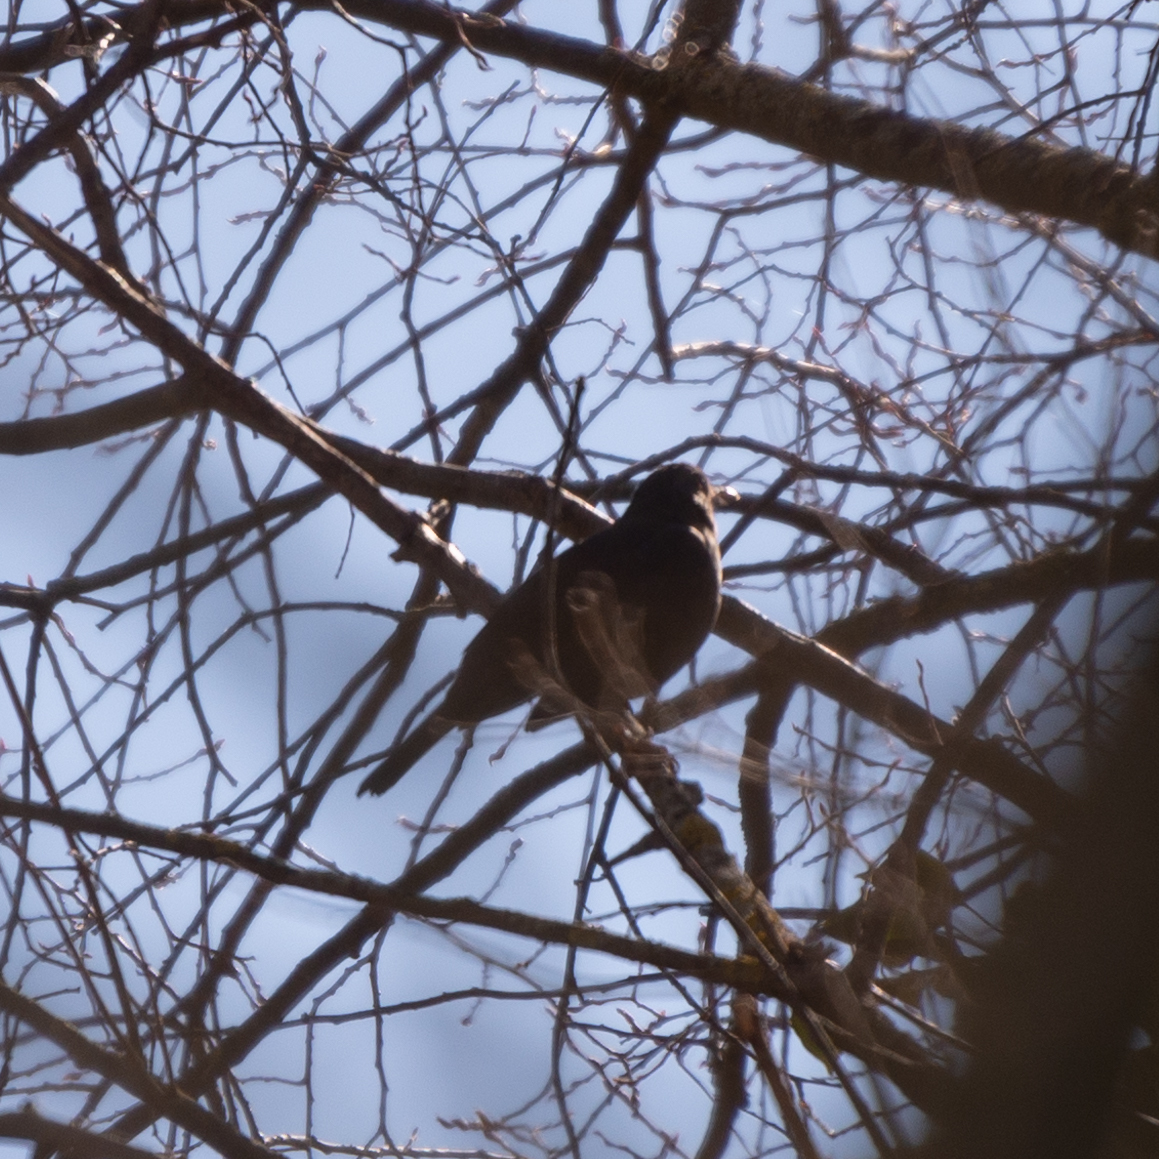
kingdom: Animalia
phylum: Chordata
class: Aves
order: Passeriformes
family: Turdidae
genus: Turdus
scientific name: Turdus merula
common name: Common blackbird
